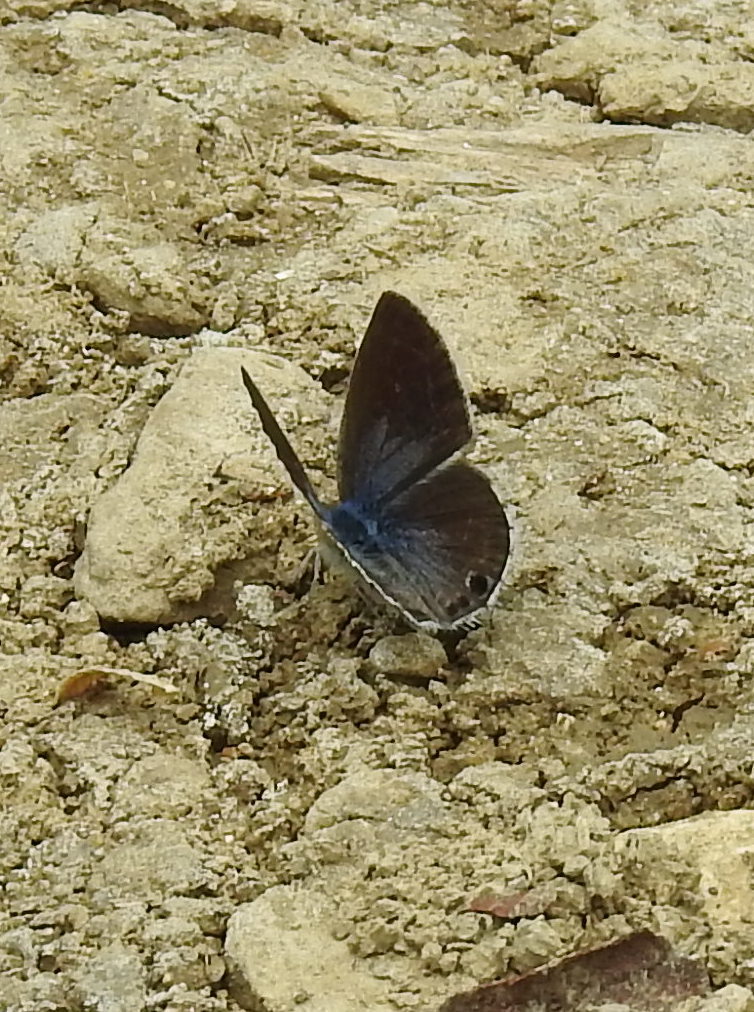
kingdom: Animalia
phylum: Arthropoda
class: Insecta
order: Lepidoptera
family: Lycaenidae
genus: Echinargus
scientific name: Echinargus isola
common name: Reakirt's blue
